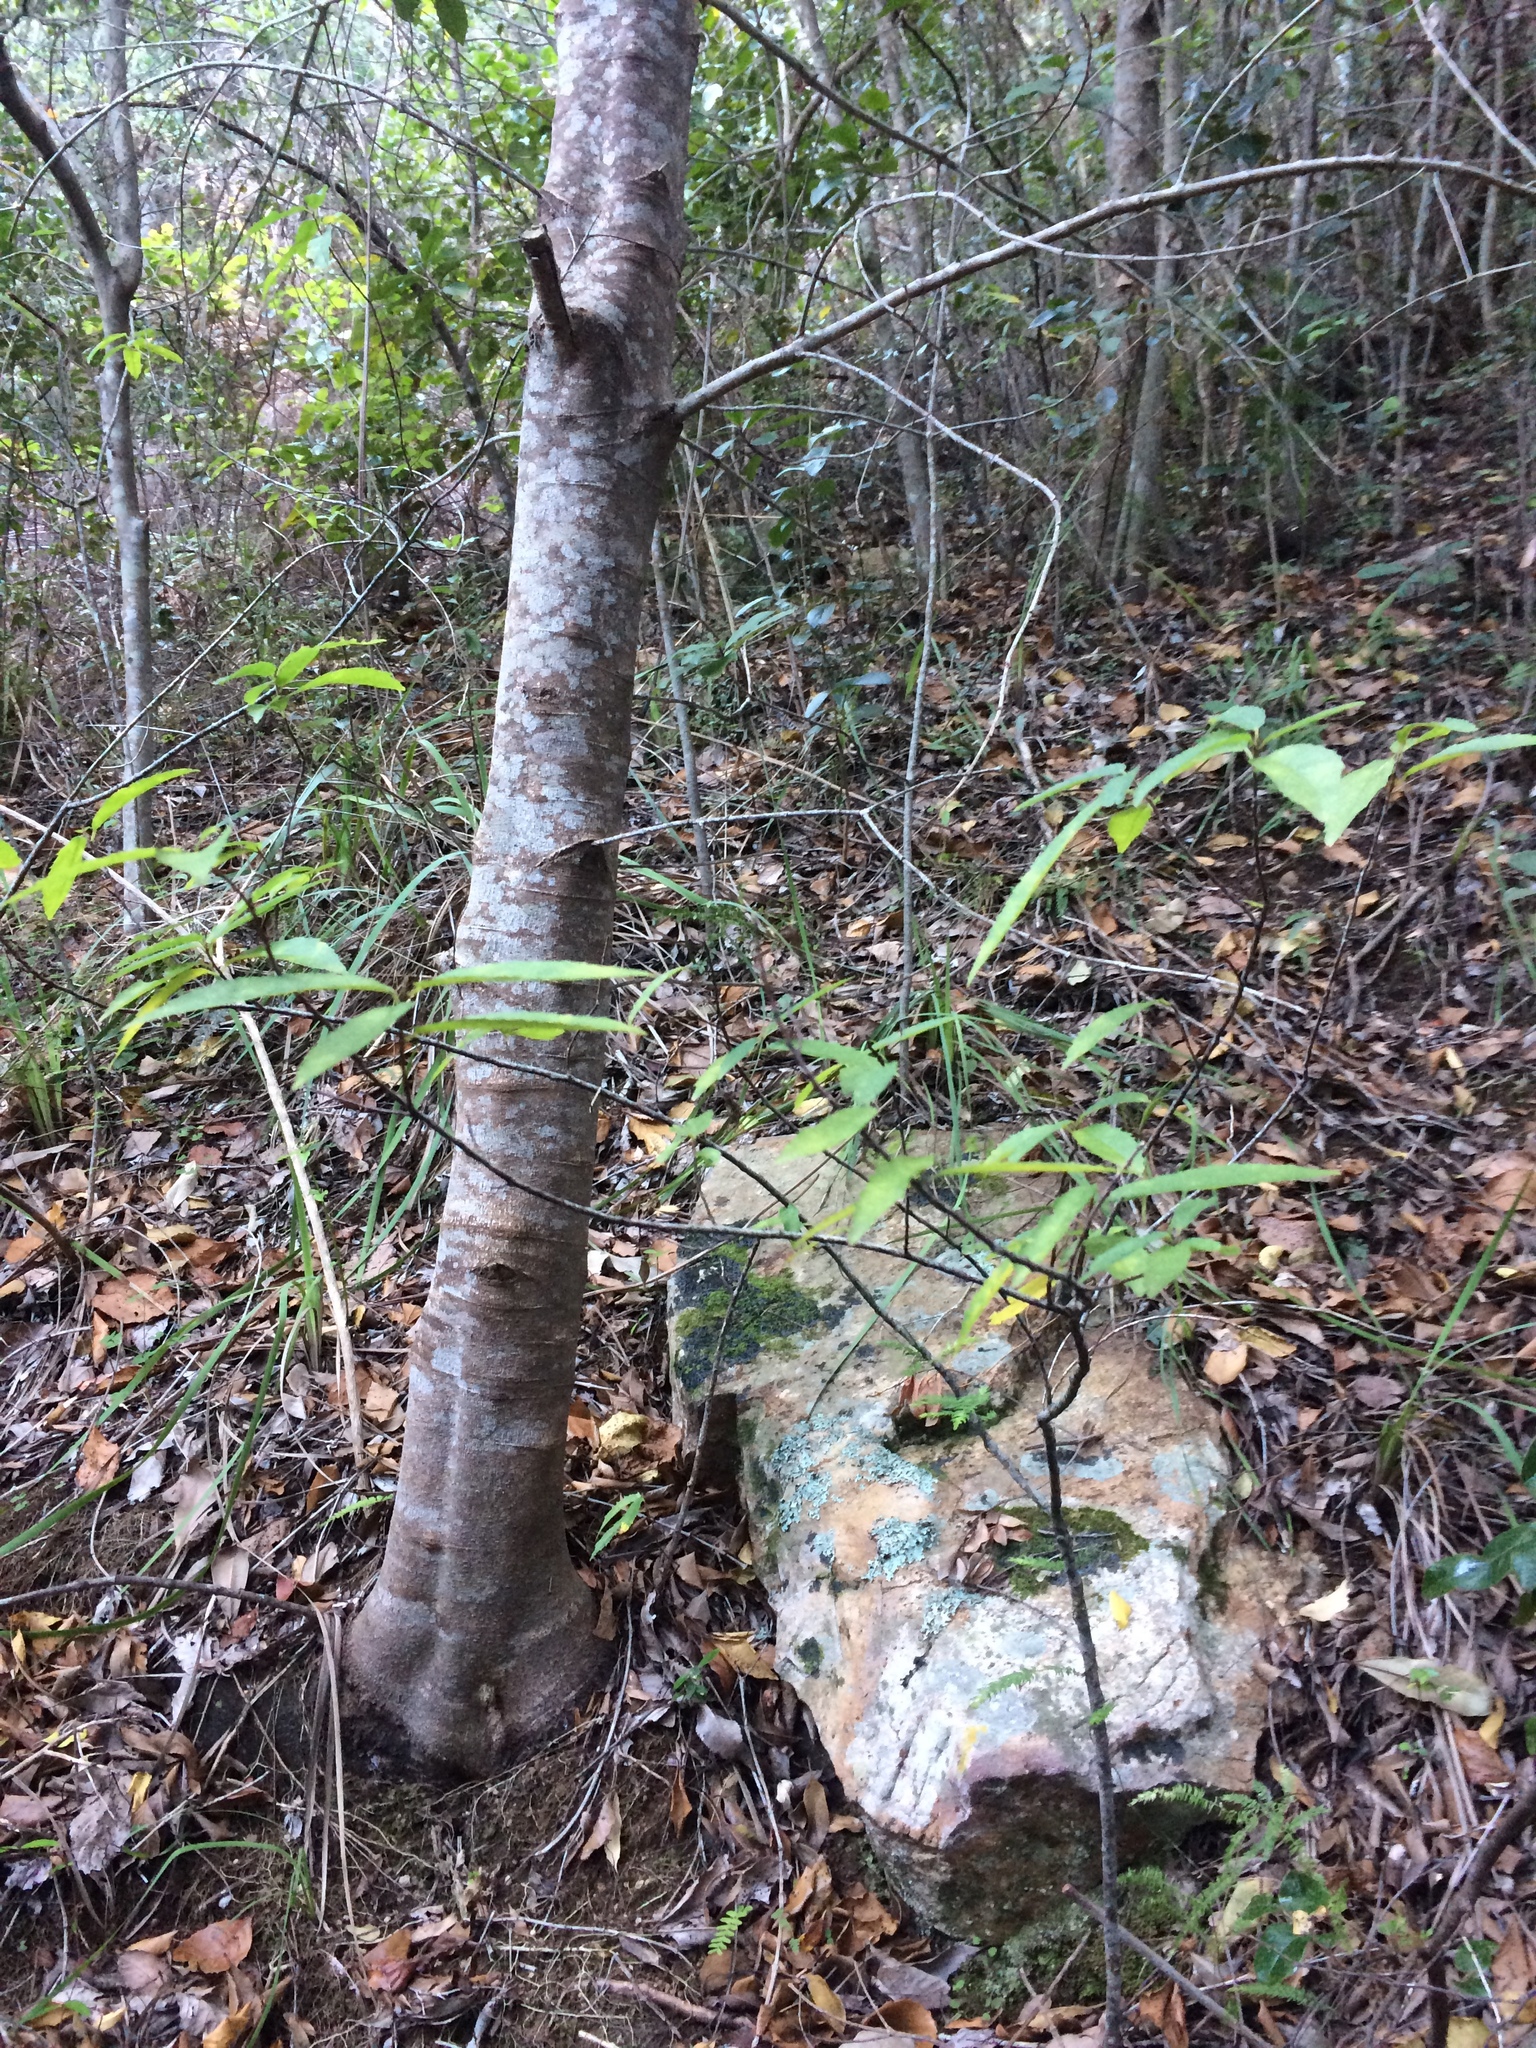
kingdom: Plantae
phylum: Tracheophyta
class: Magnoliopsida
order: Malpighiales
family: Achariaceae
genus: Kiggelaria
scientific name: Kiggelaria africana
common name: Wild peach
